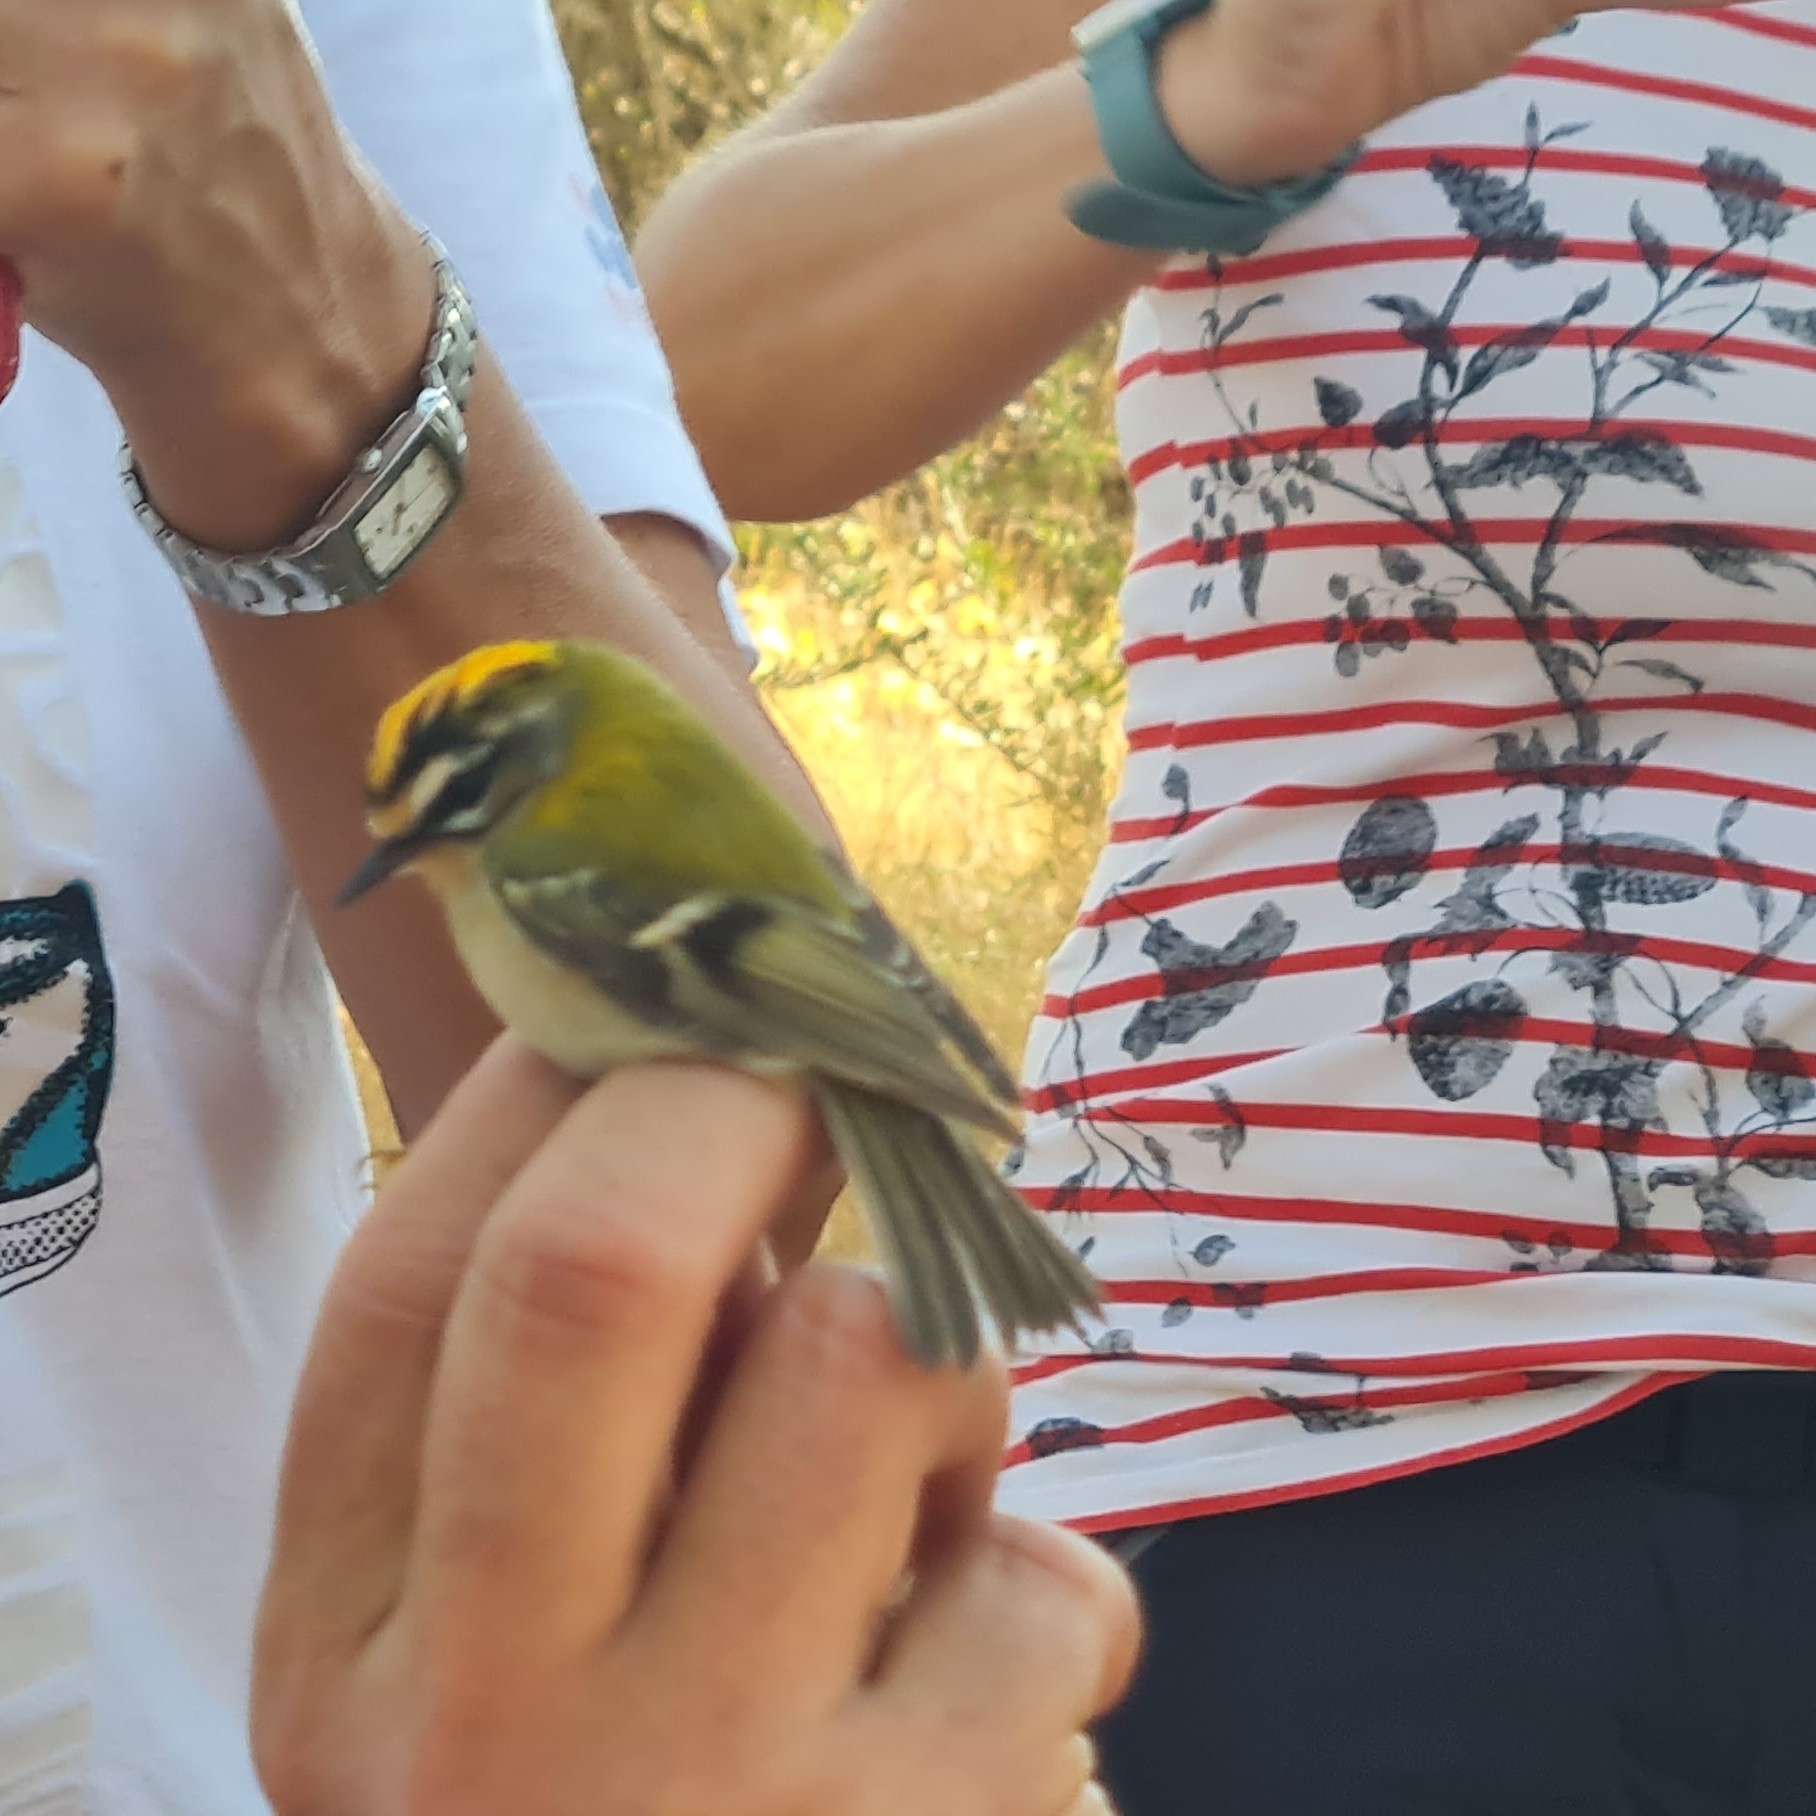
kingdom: Animalia
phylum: Chordata
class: Aves
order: Passeriformes
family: Regulidae
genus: Regulus
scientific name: Regulus ignicapilla
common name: Firecrest
